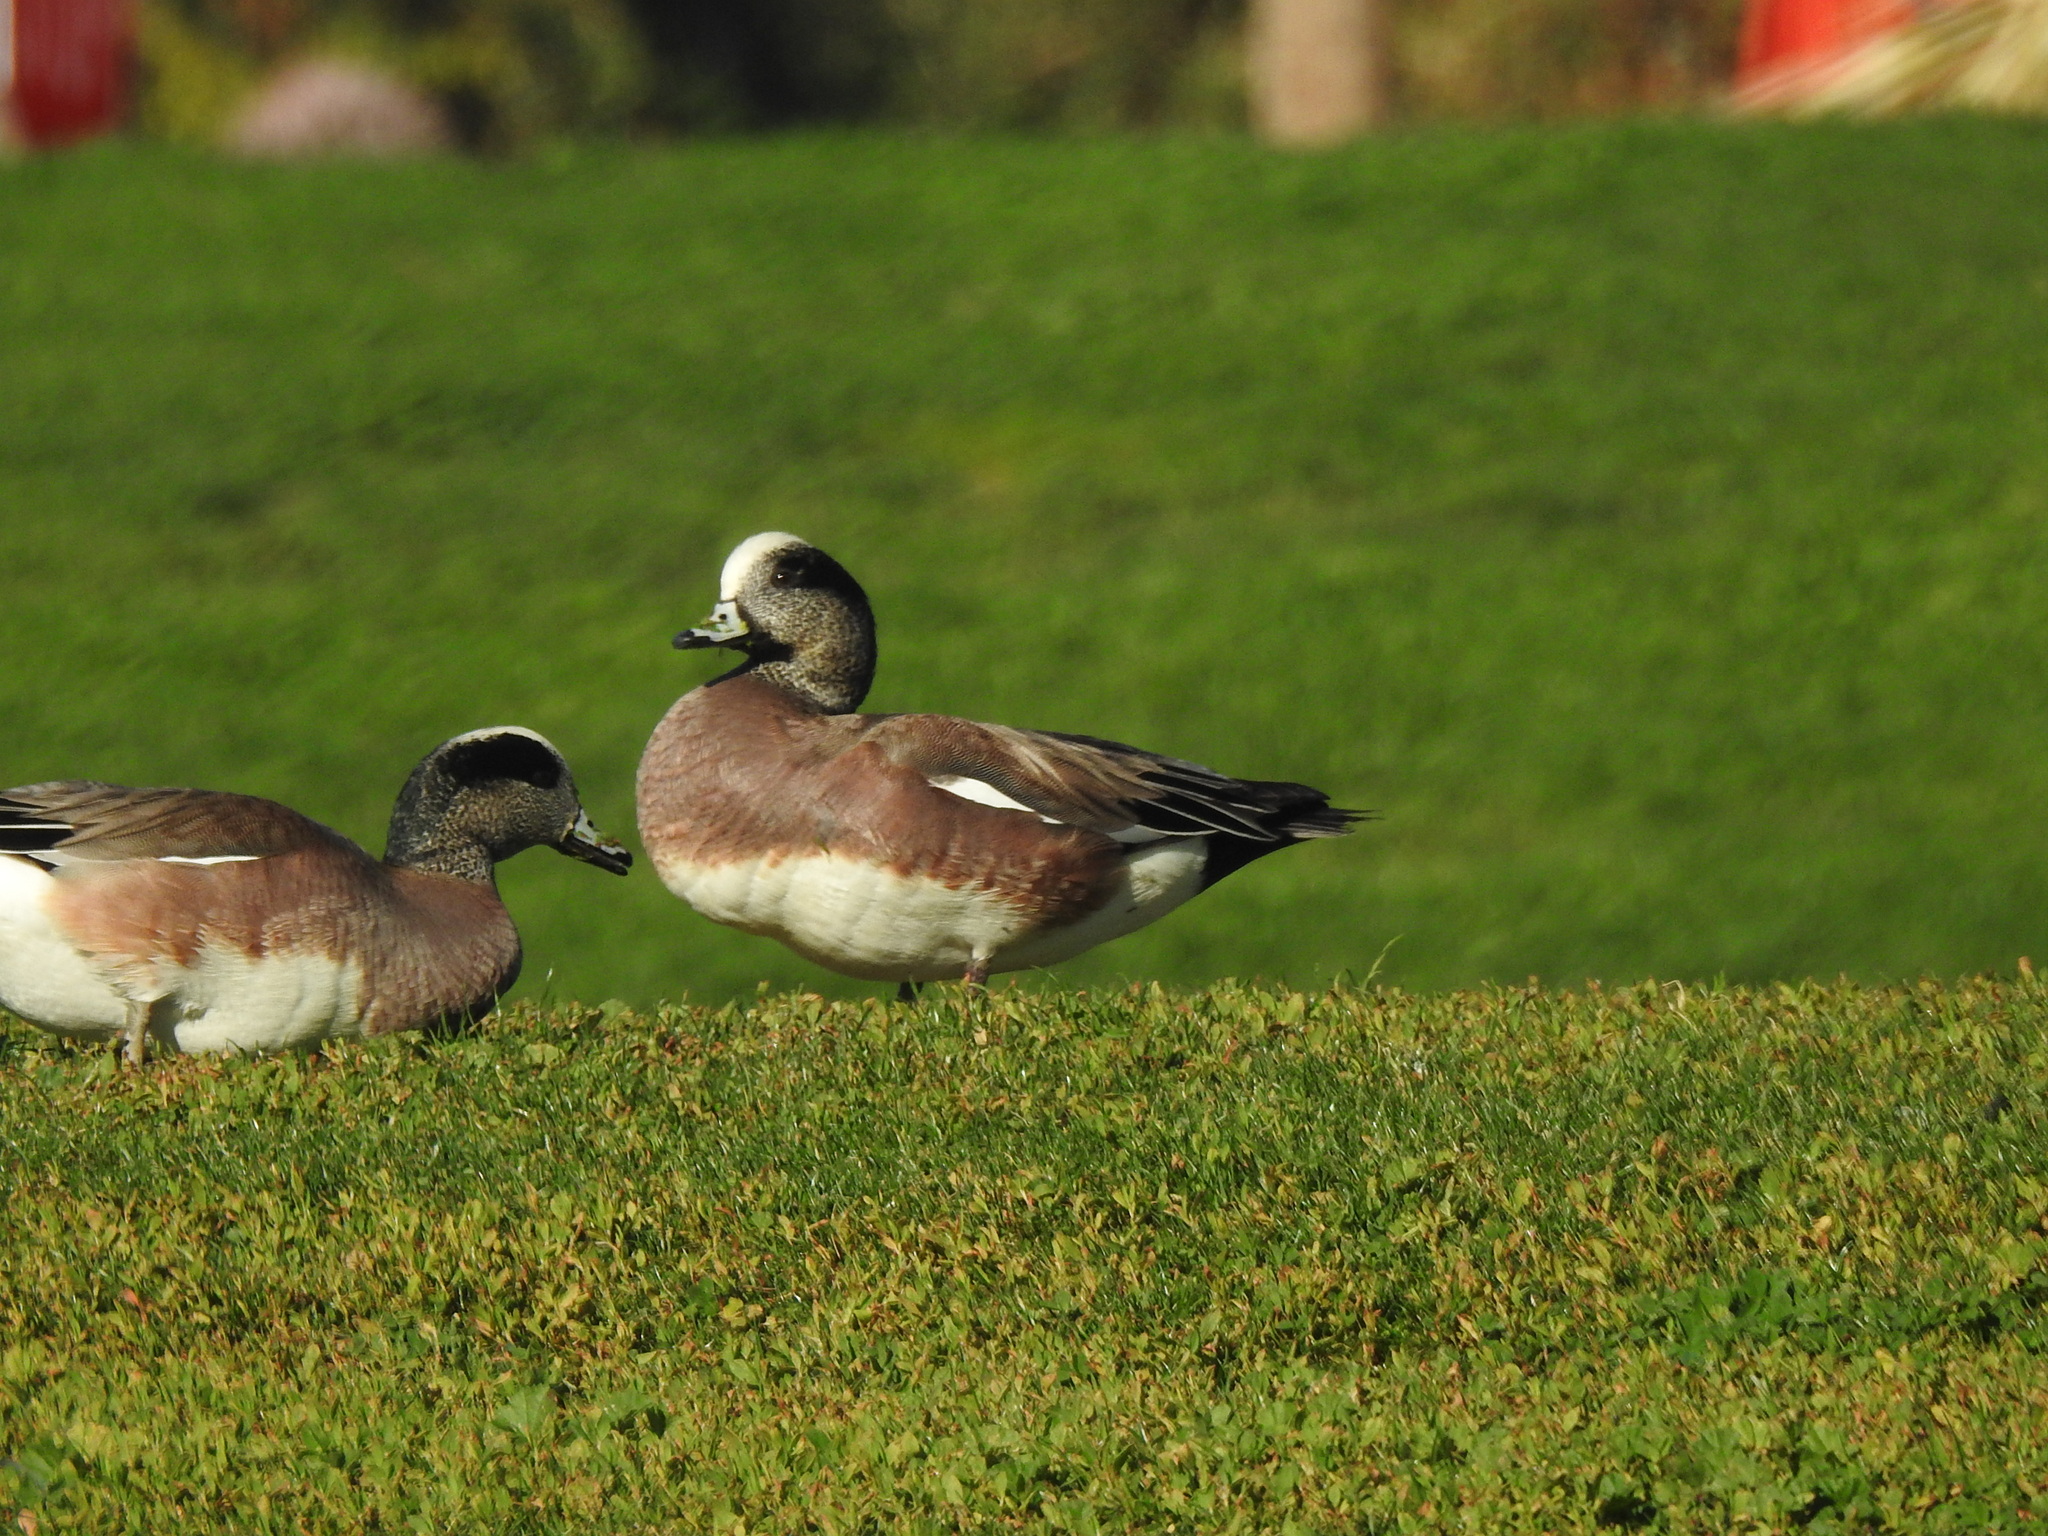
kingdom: Animalia
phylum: Chordata
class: Aves
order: Anseriformes
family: Anatidae
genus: Mareca
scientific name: Mareca americana
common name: American wigeon
